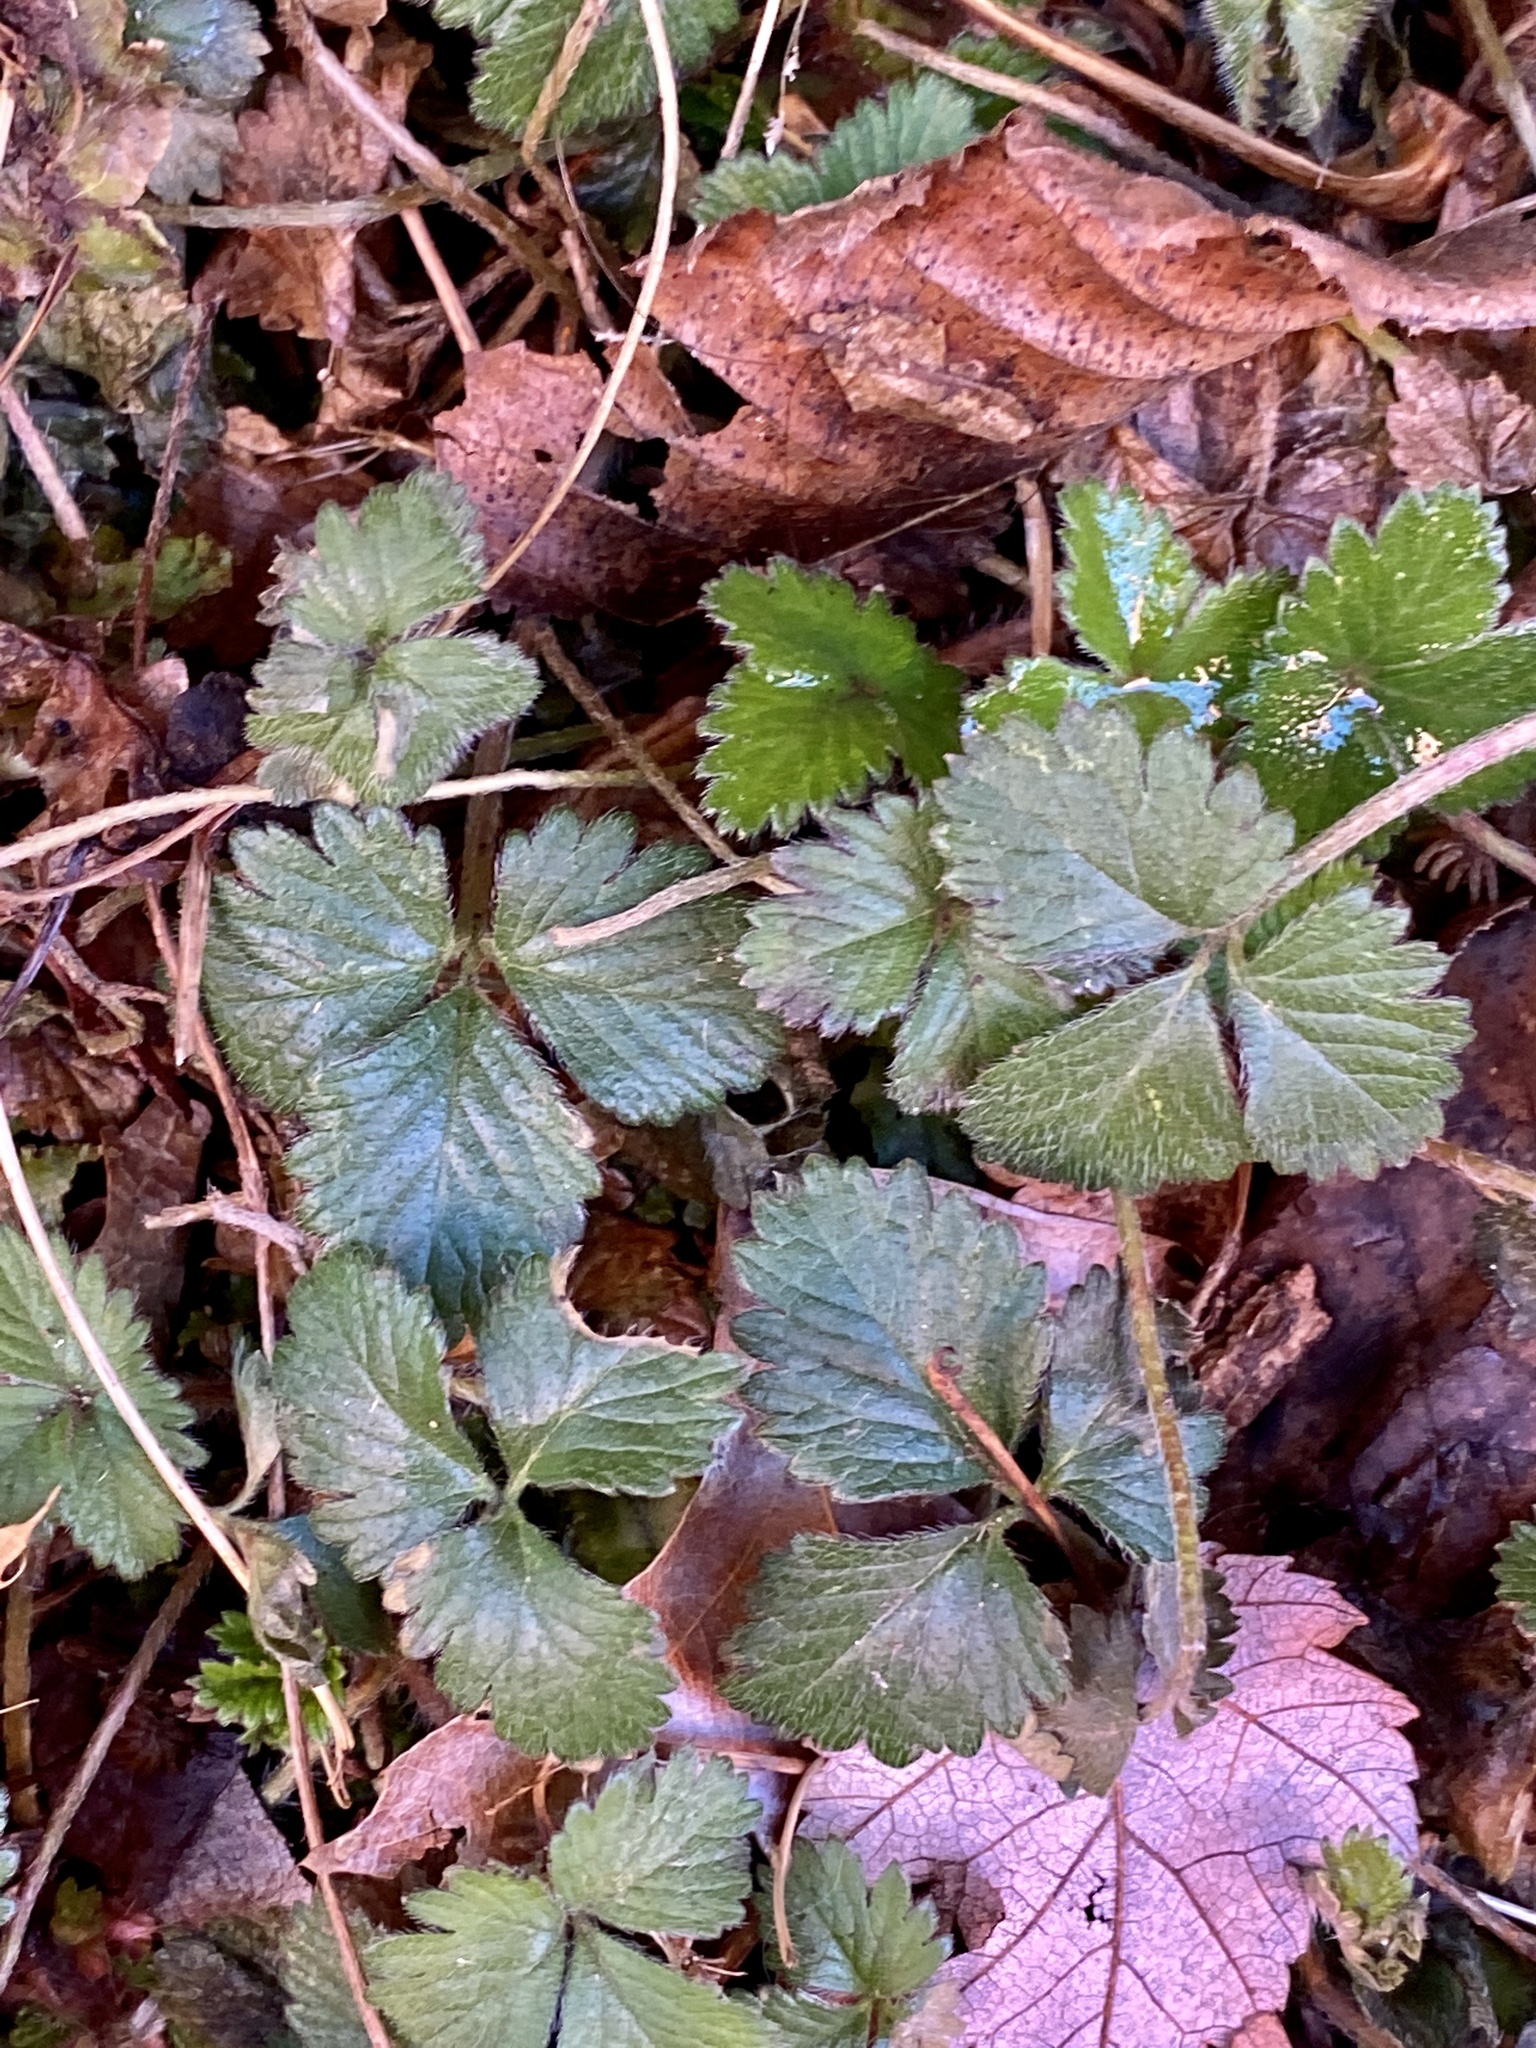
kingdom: Plantae
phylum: Tracheophyta
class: Magnoliopsida
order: Rosales
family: Rosaceae
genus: Potentilla
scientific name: Potentilla indica
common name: Yellow-flowered strawberry
